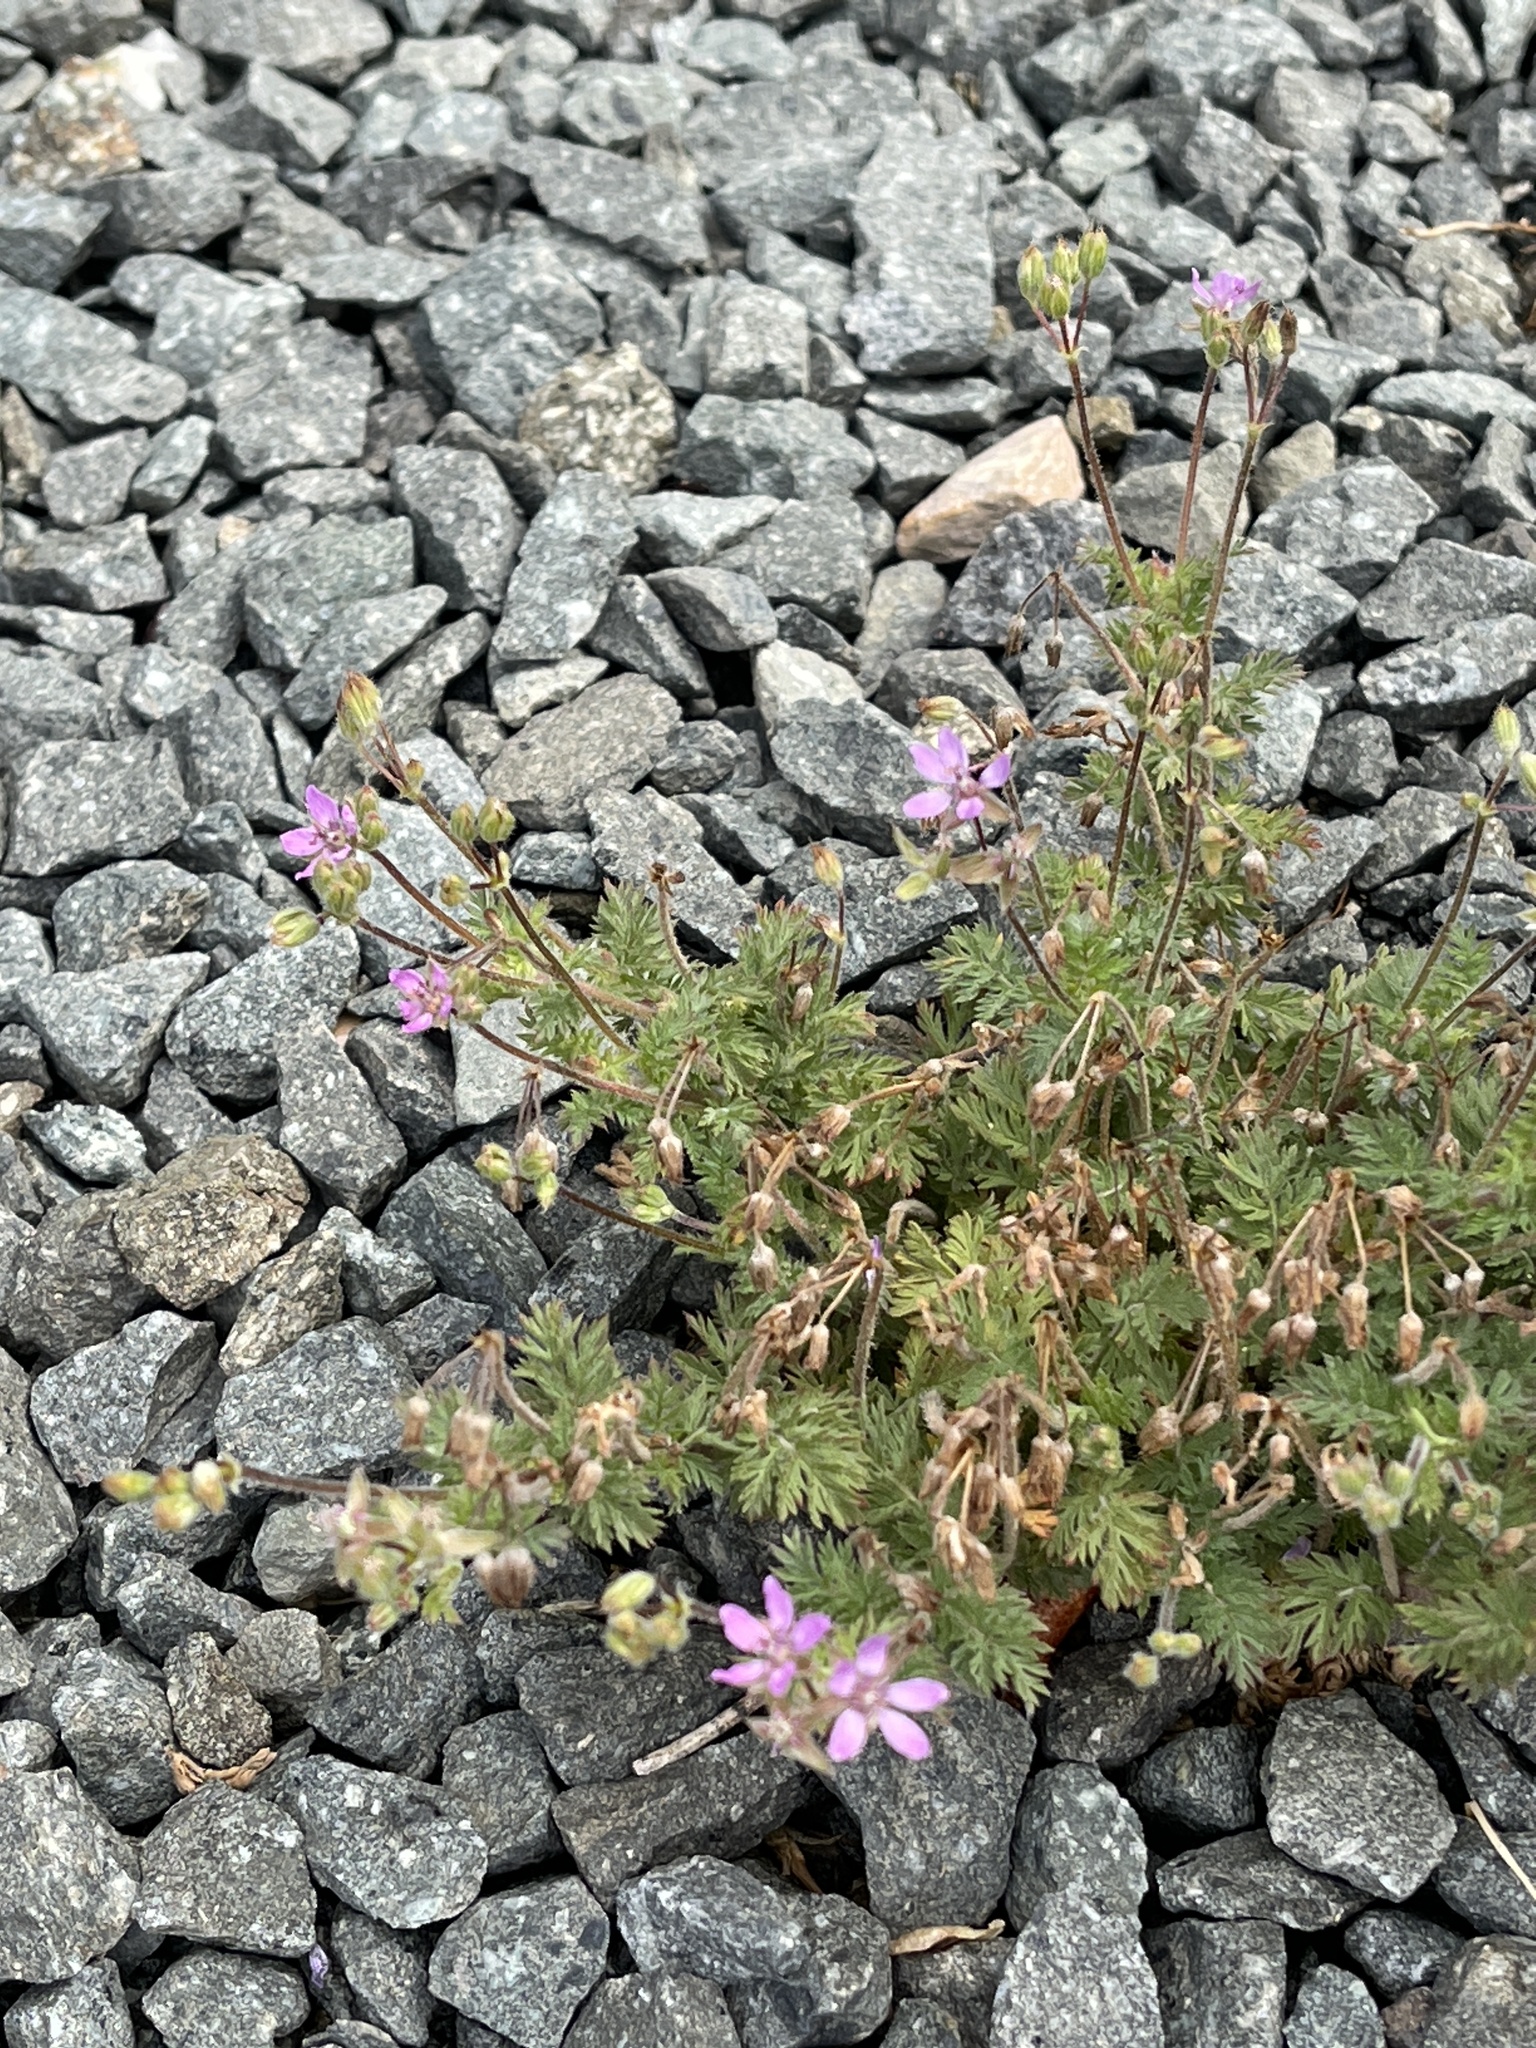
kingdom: Plantae
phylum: Tracheophyta
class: Magnoliopsida
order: Geraniales
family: Geraniaceae
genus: Erodium
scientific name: Erodium cicutarium
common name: Common stork's-bill
